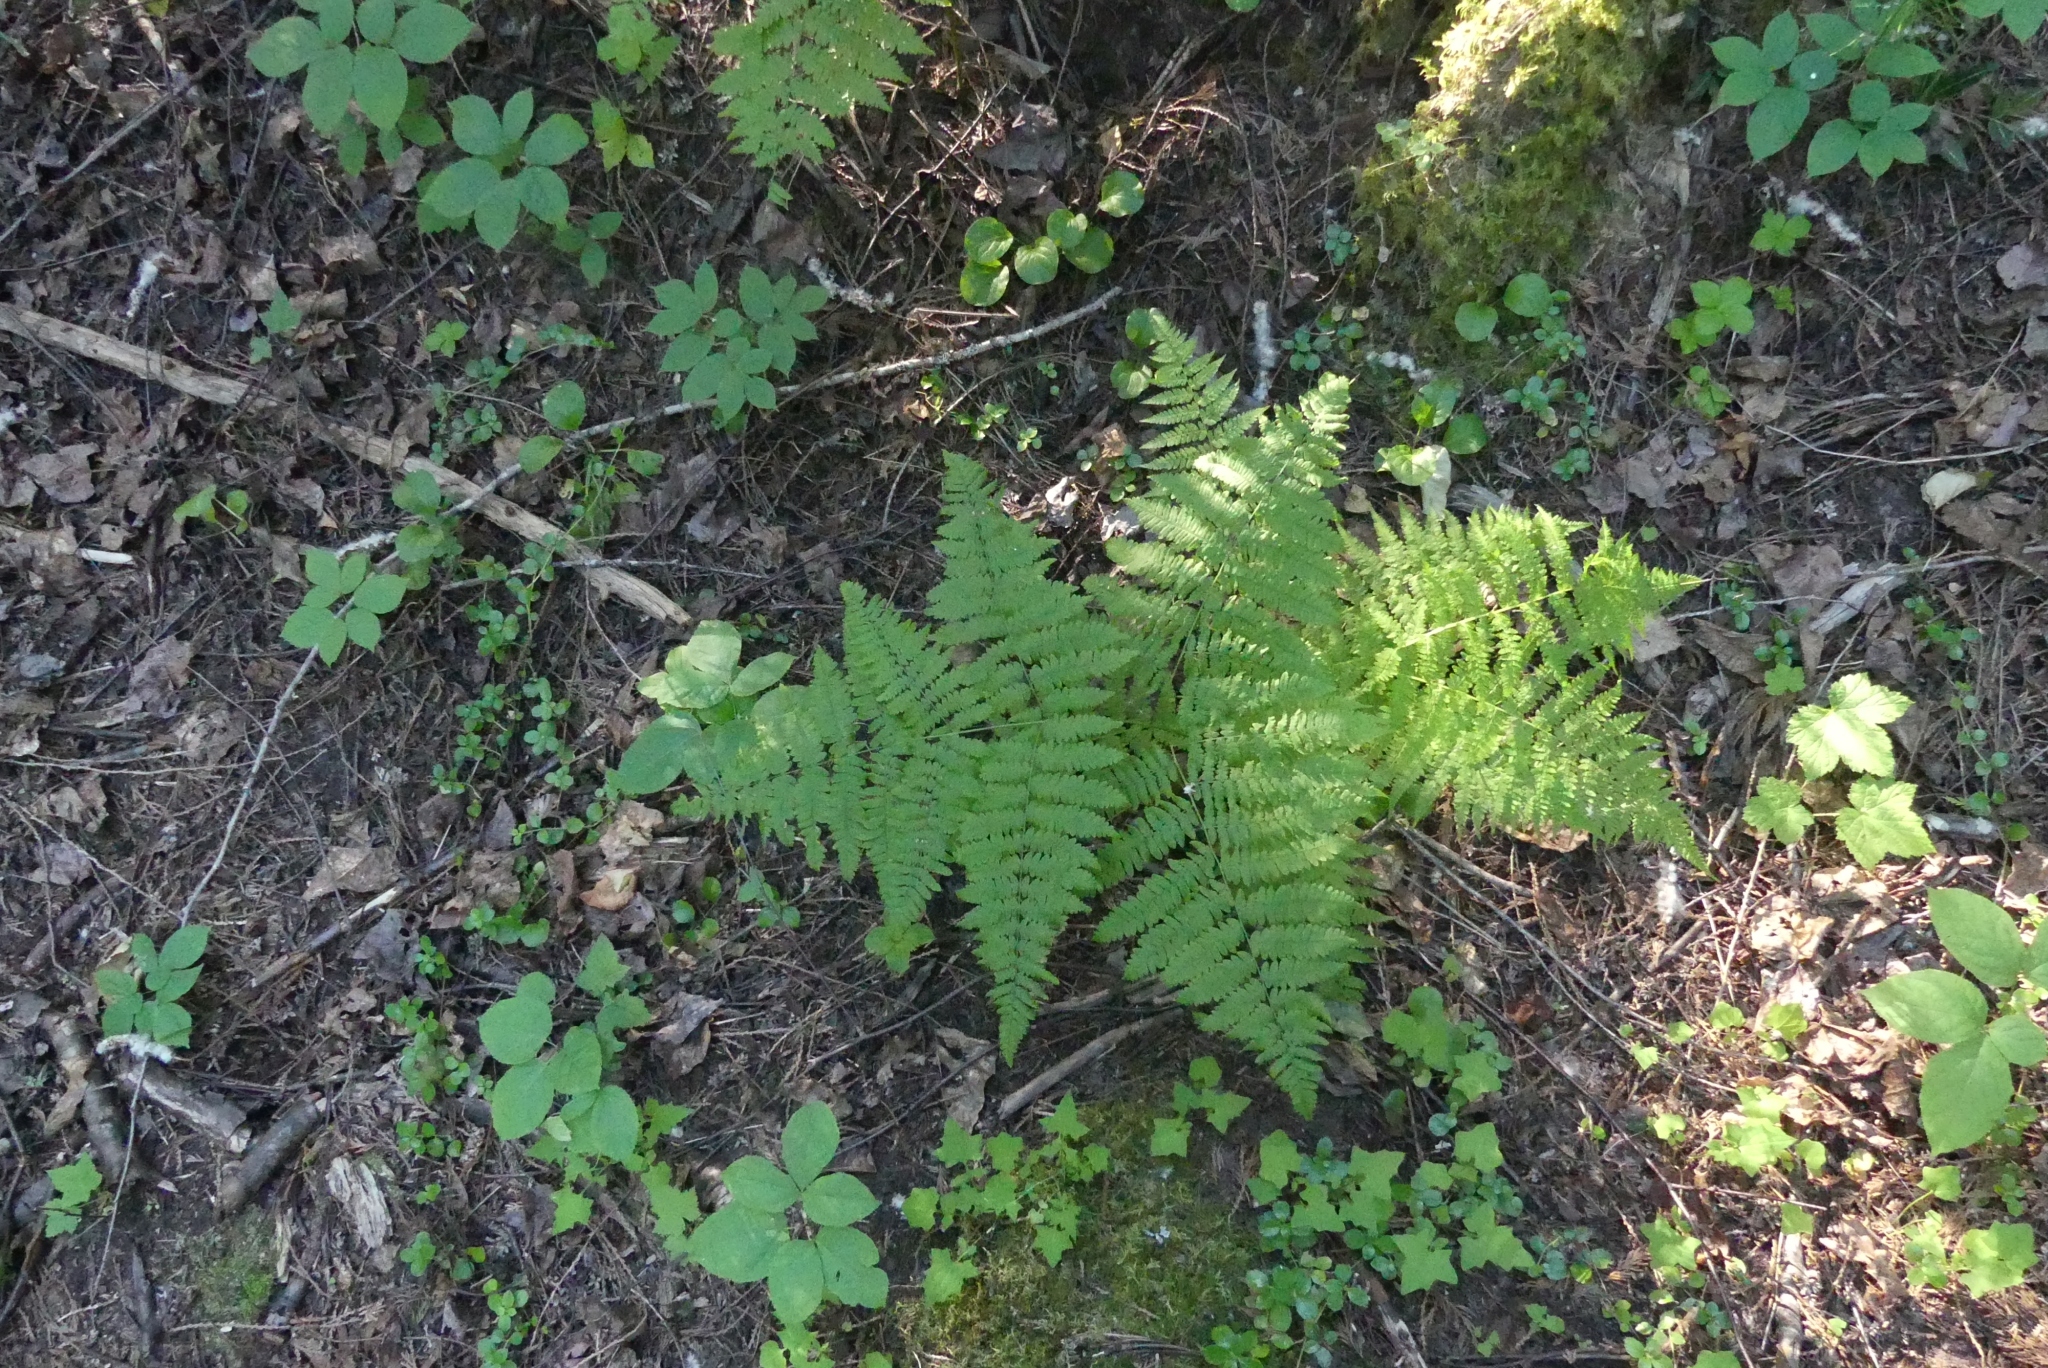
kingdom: Plantae
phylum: Tracheophyta
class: Polypodiopsida
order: Polypodiales
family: Dennstaedtiaceae
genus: Pteridium
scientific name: Pteridium aquilinum
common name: Bracken
